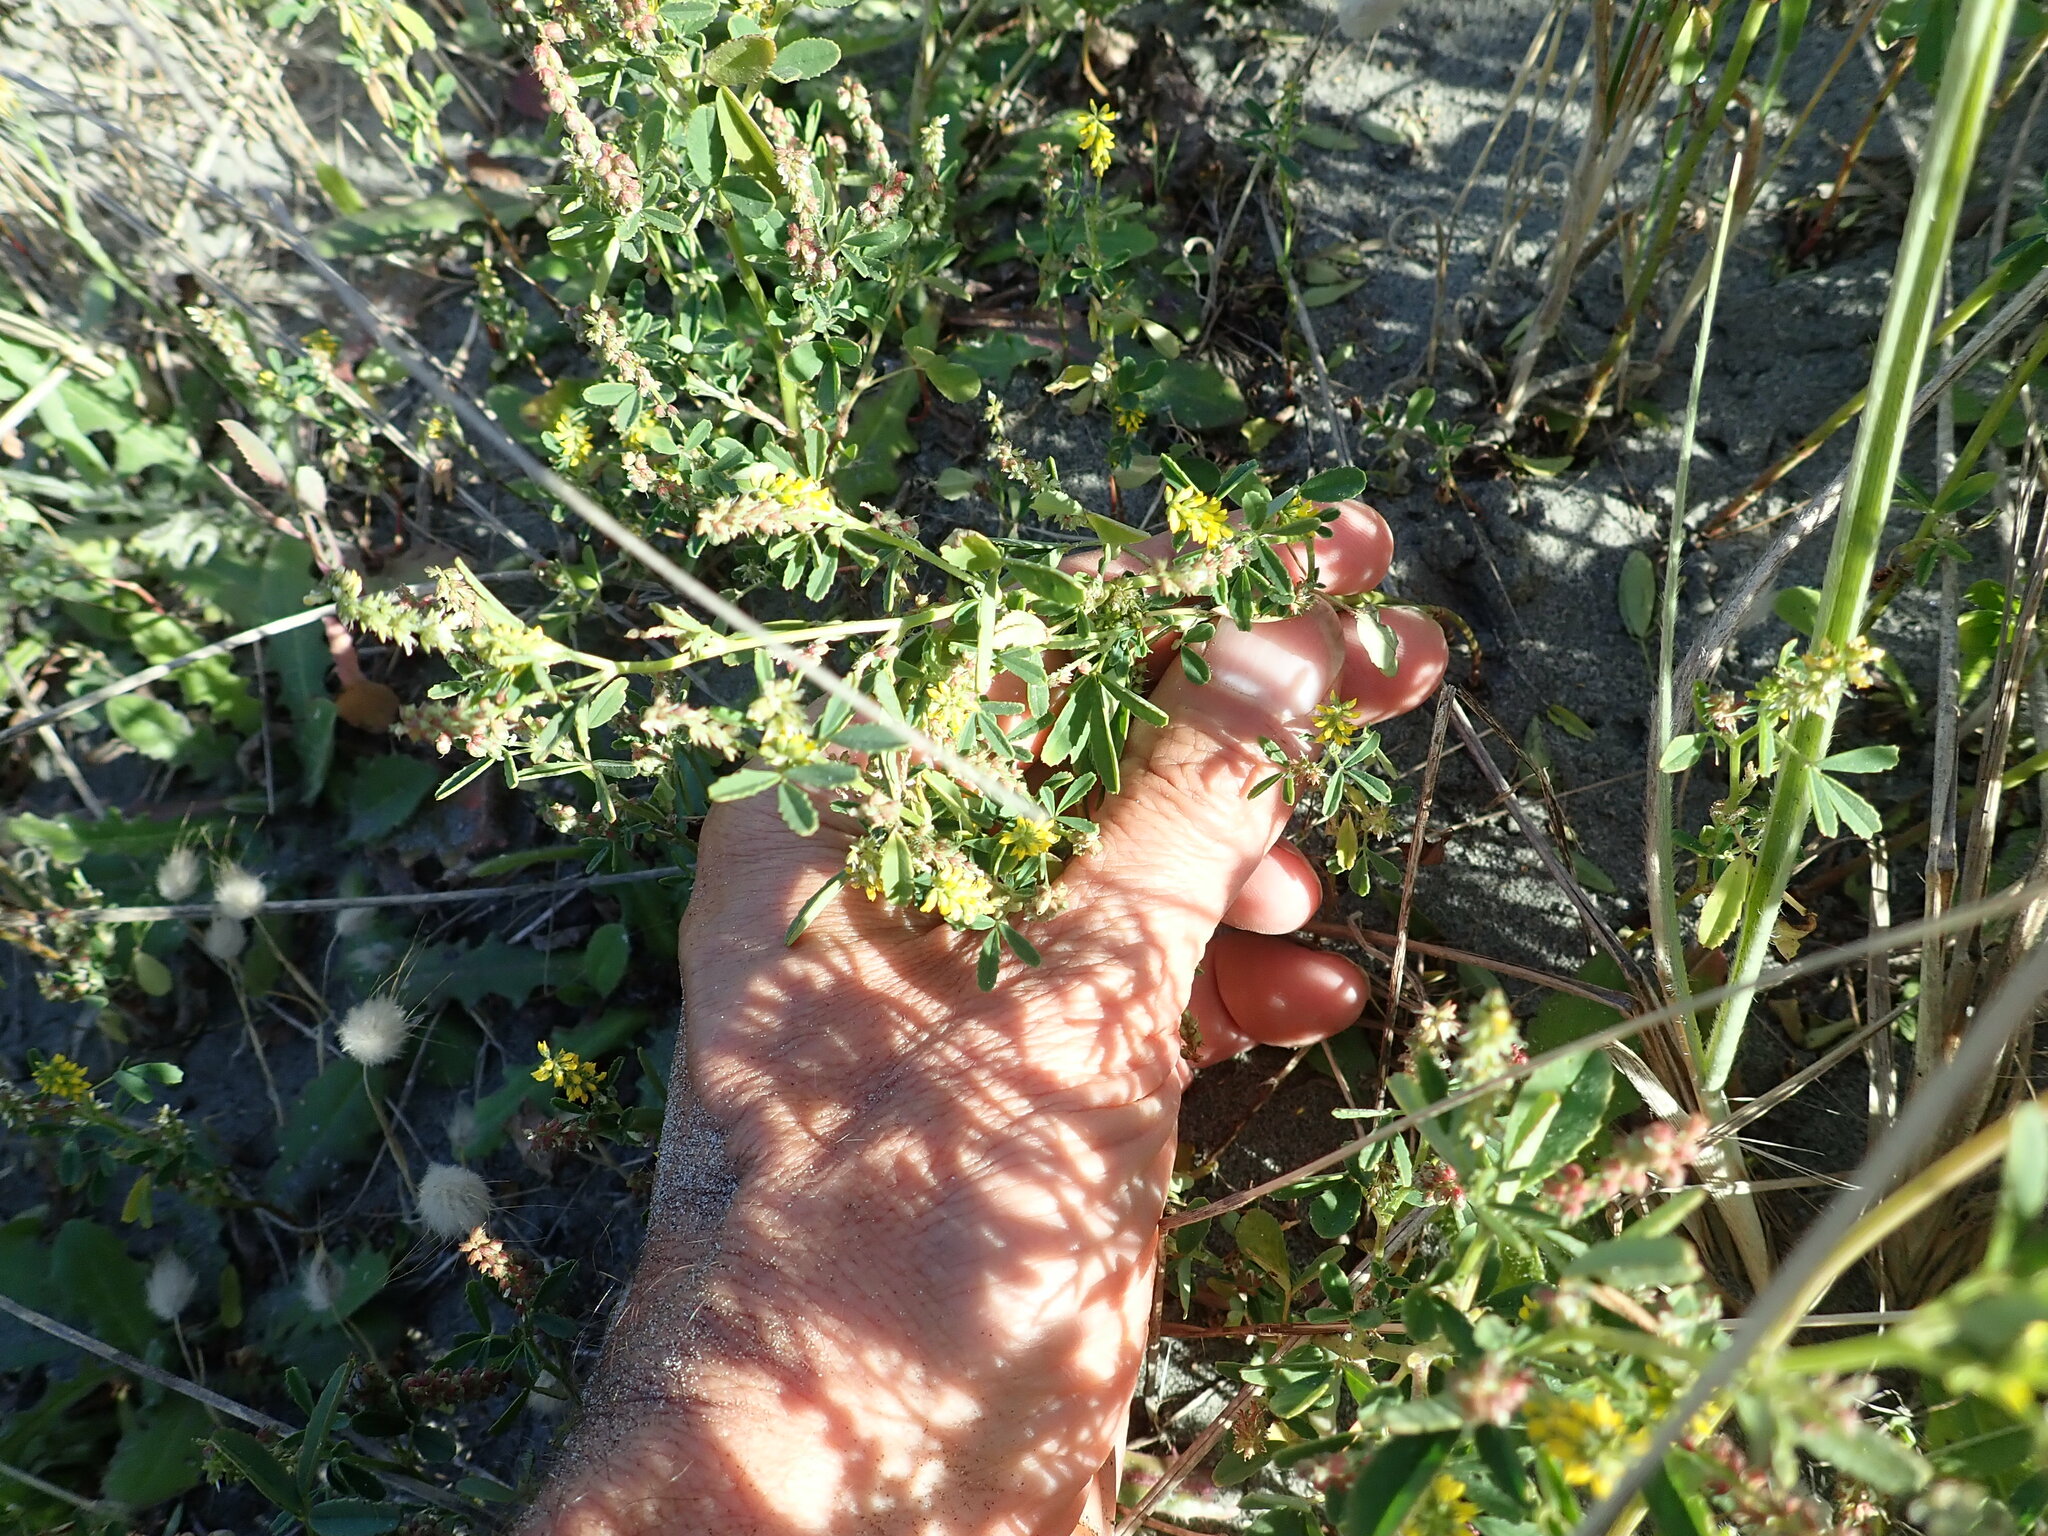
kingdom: Plantae
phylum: Tracheophyta
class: Magnoliopsida
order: Fabales
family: Fabaceae
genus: Melilotus
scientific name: Melilotus indicus
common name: Small melilot
